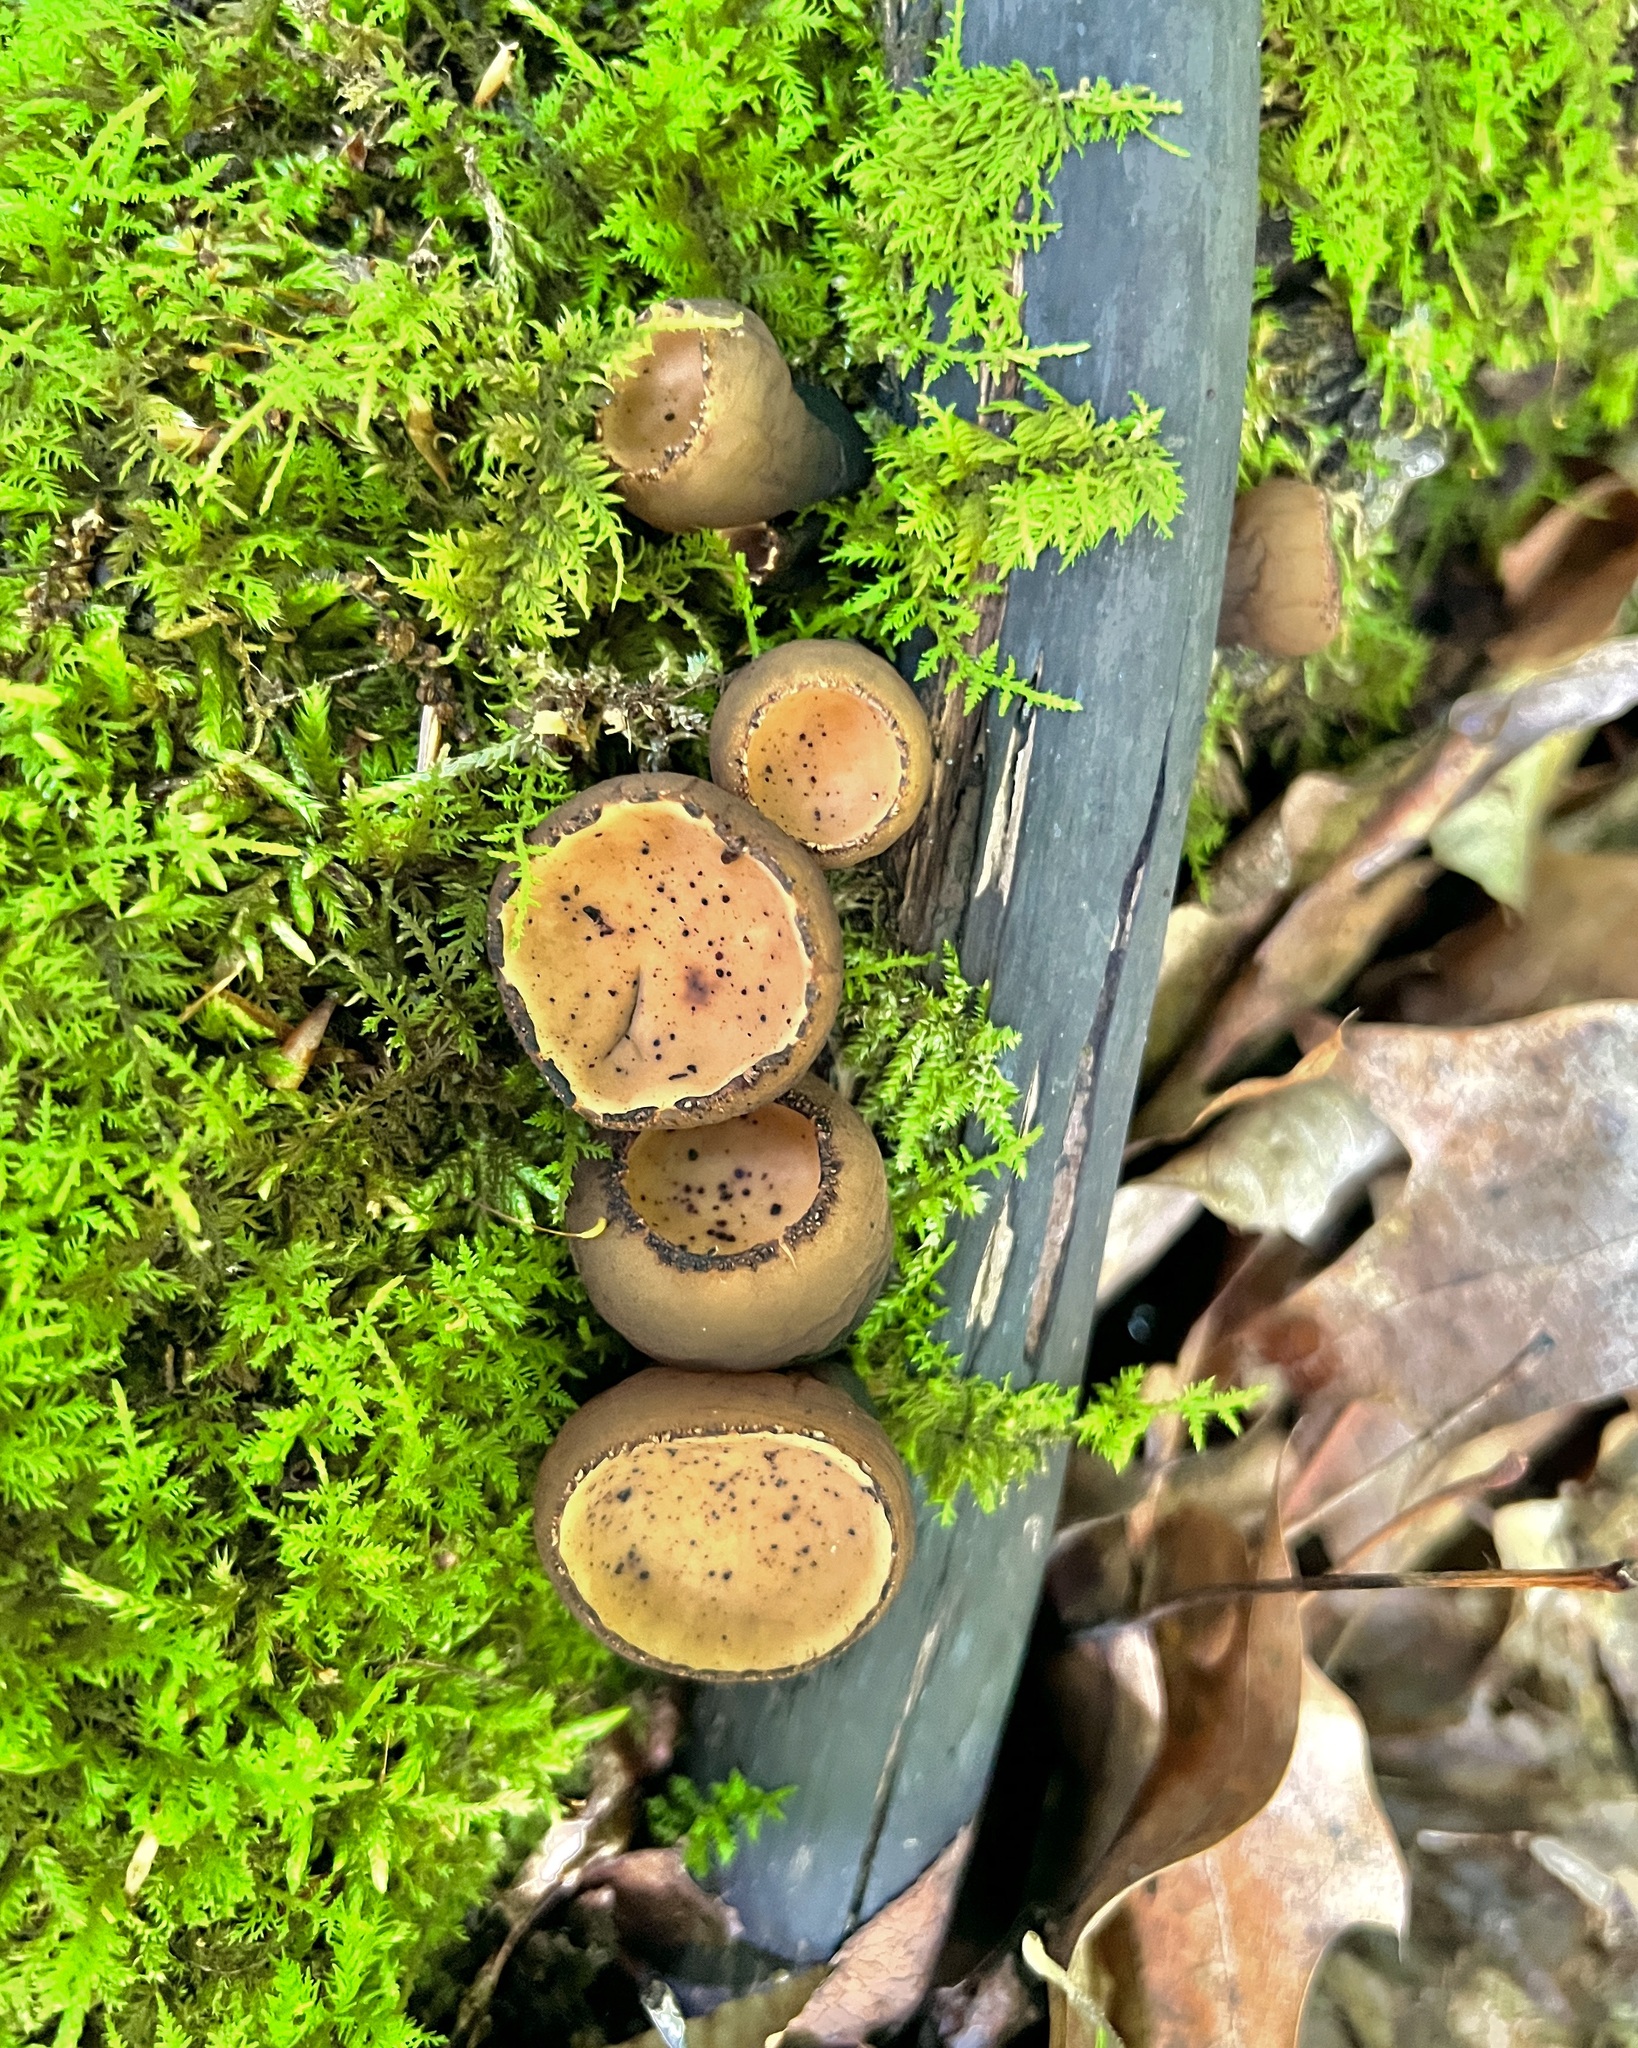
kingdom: Fungi
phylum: Ascomycota
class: Pezizomycetes
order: Pezizales
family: Sarcosomataceae
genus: Galiella
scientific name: Galiella rufa
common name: Hairy rubber cup
